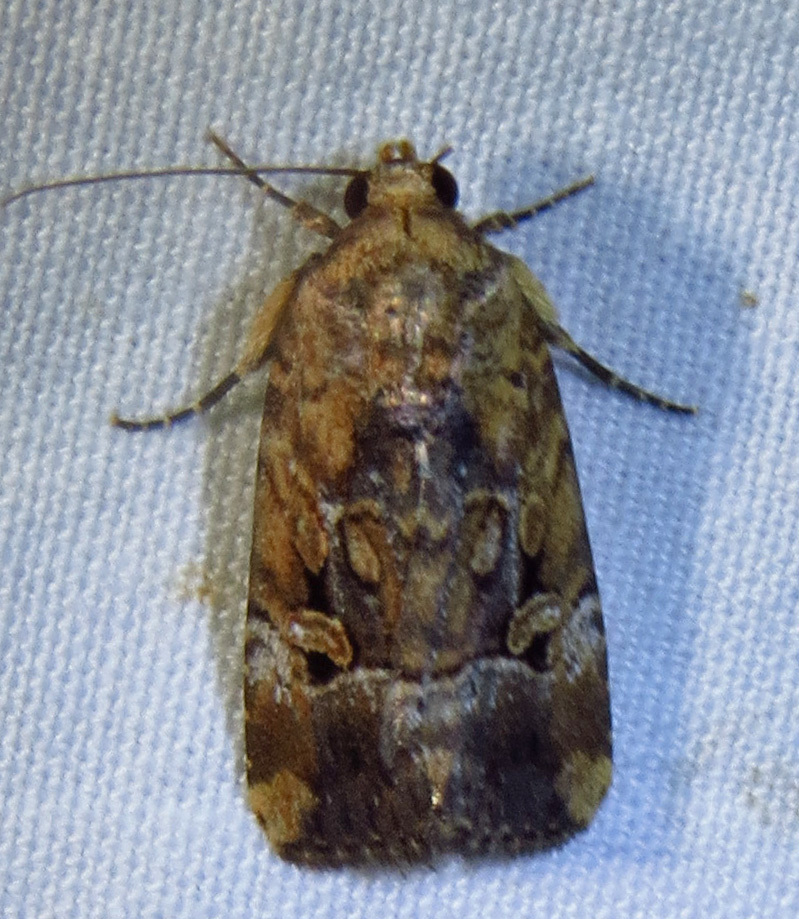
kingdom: Animalia
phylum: Arthropoda
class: Insecta
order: Lepidoptera
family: Noctuidae
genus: Elaphria
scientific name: Elaphria chalcedonia
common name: Chalcedony midget
